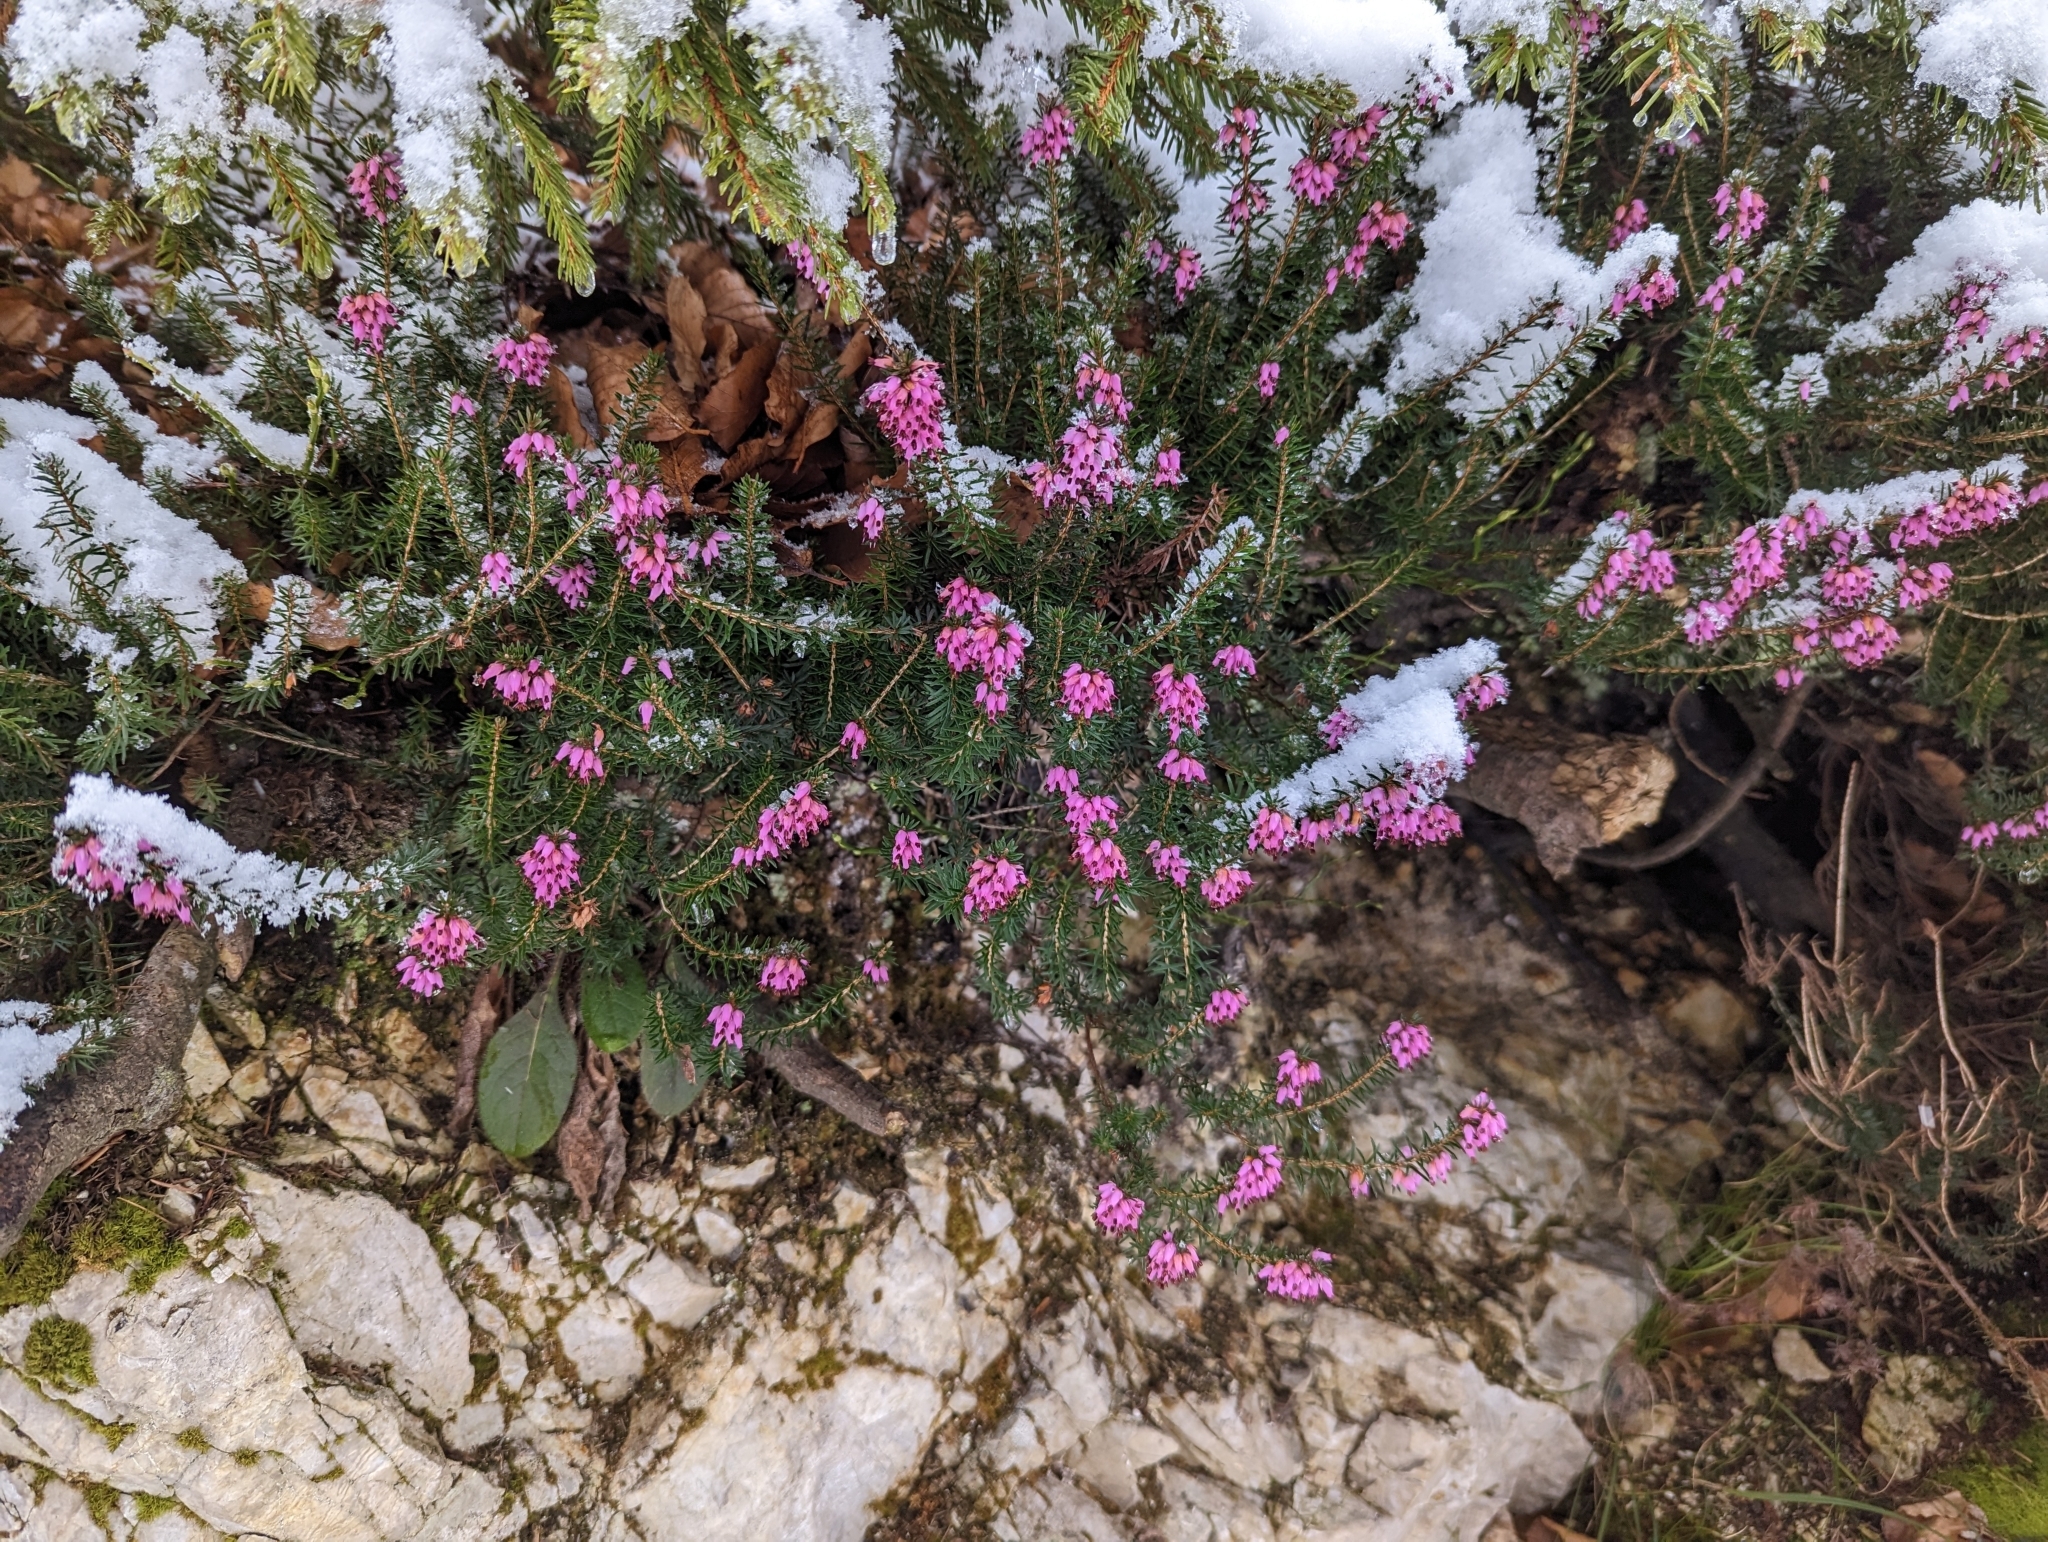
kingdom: Plantae
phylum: Tracheophyta
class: Magnoliopsida
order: Ericales
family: Ericaceae
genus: Erica
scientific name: Erica carnea
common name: Winter heath
